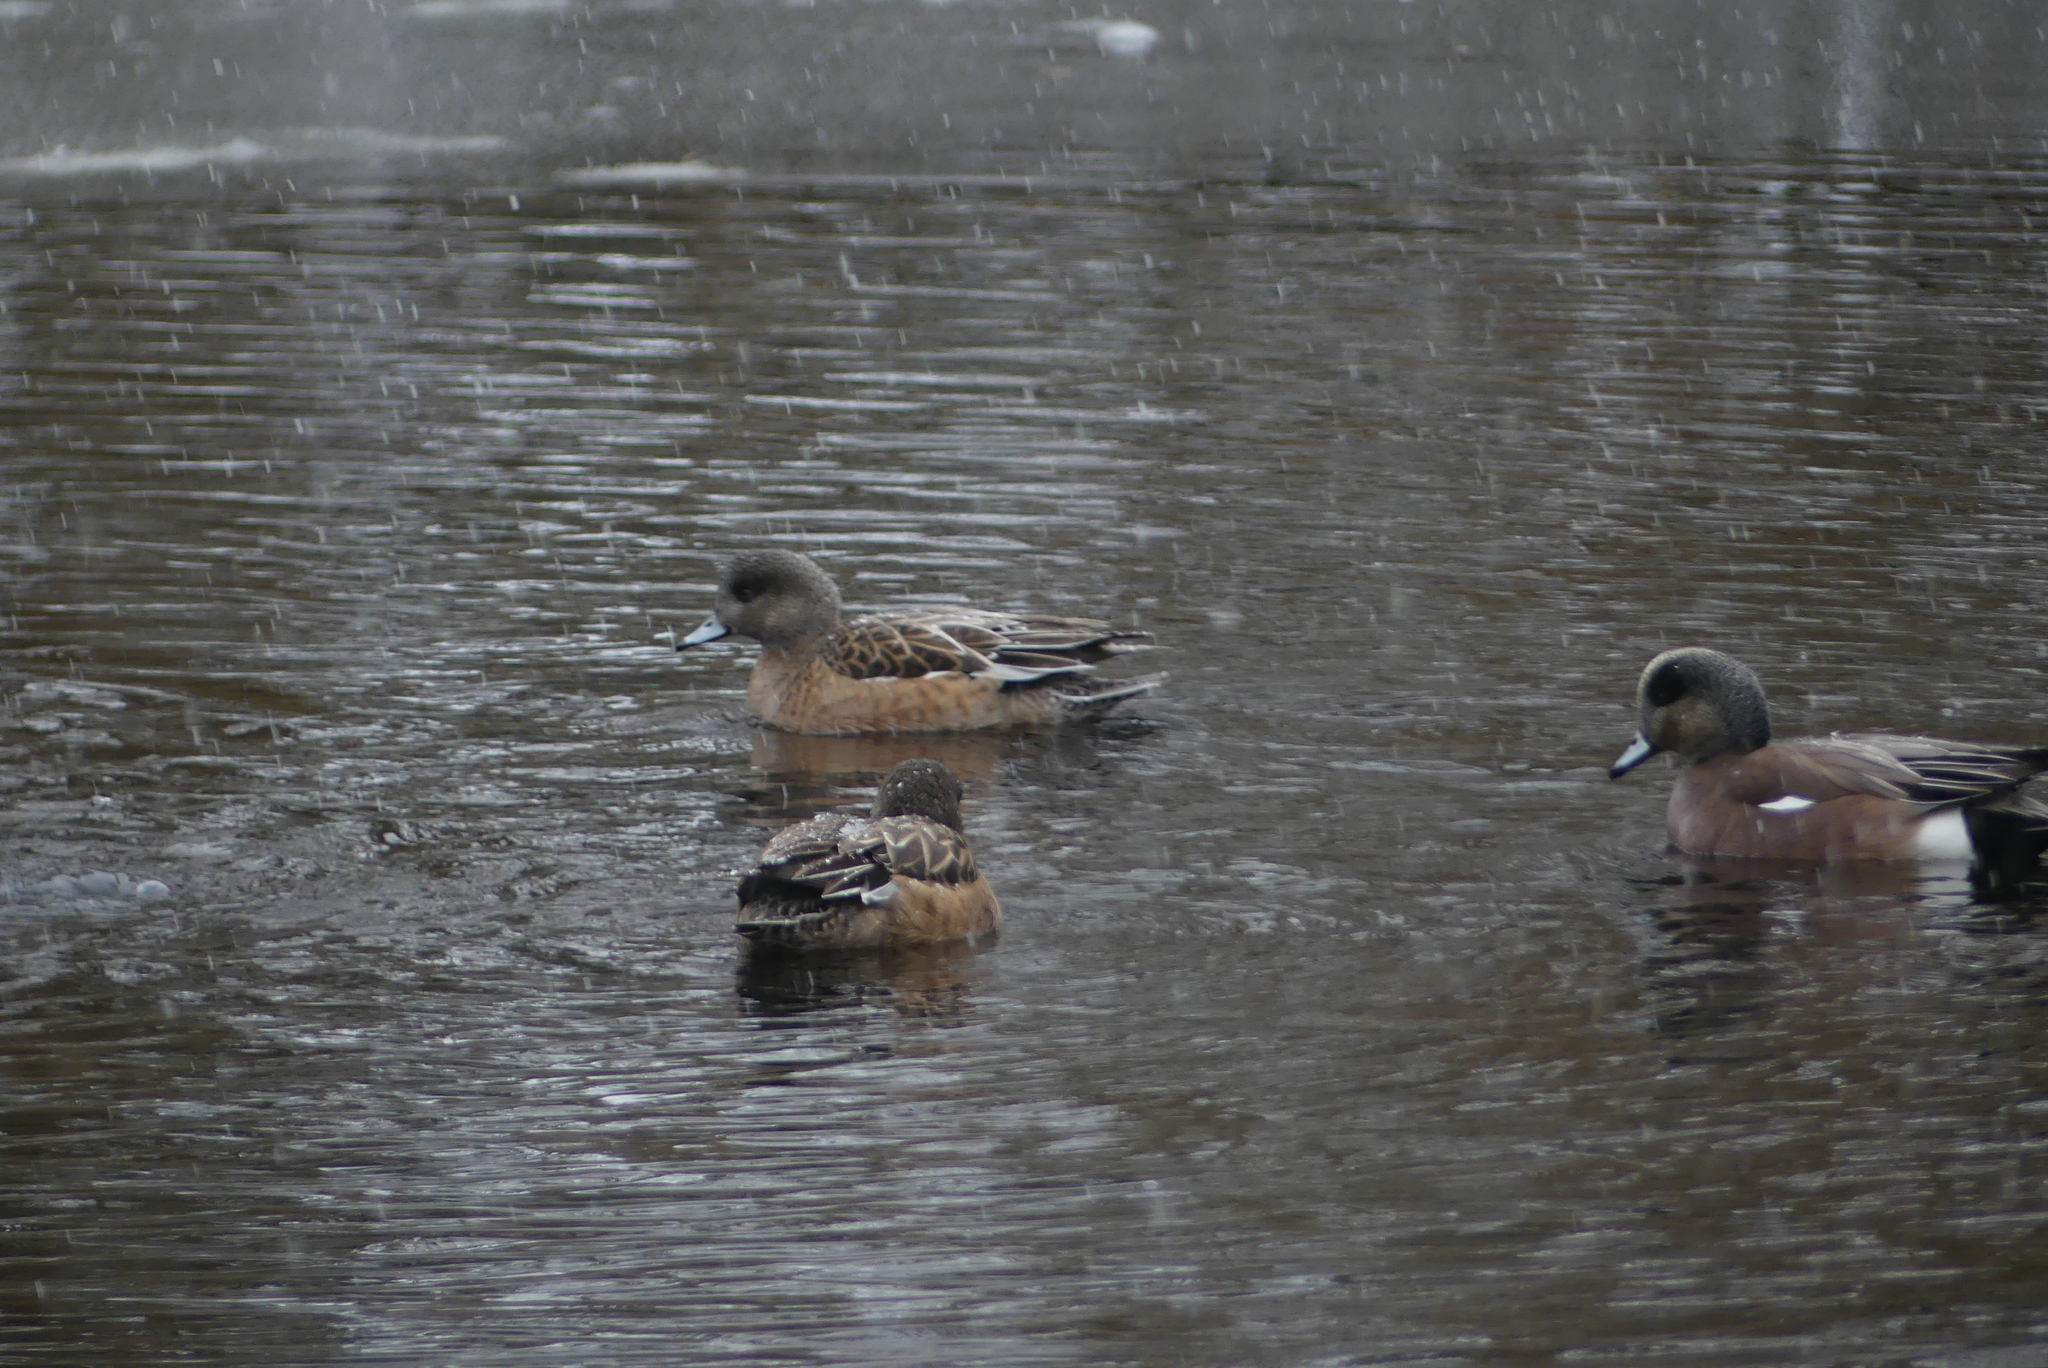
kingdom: Animalia
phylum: Chordata
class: Aves
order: Anseriformes
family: Anatidae
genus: Mareca
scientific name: Mareca americana
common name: American wigeon
